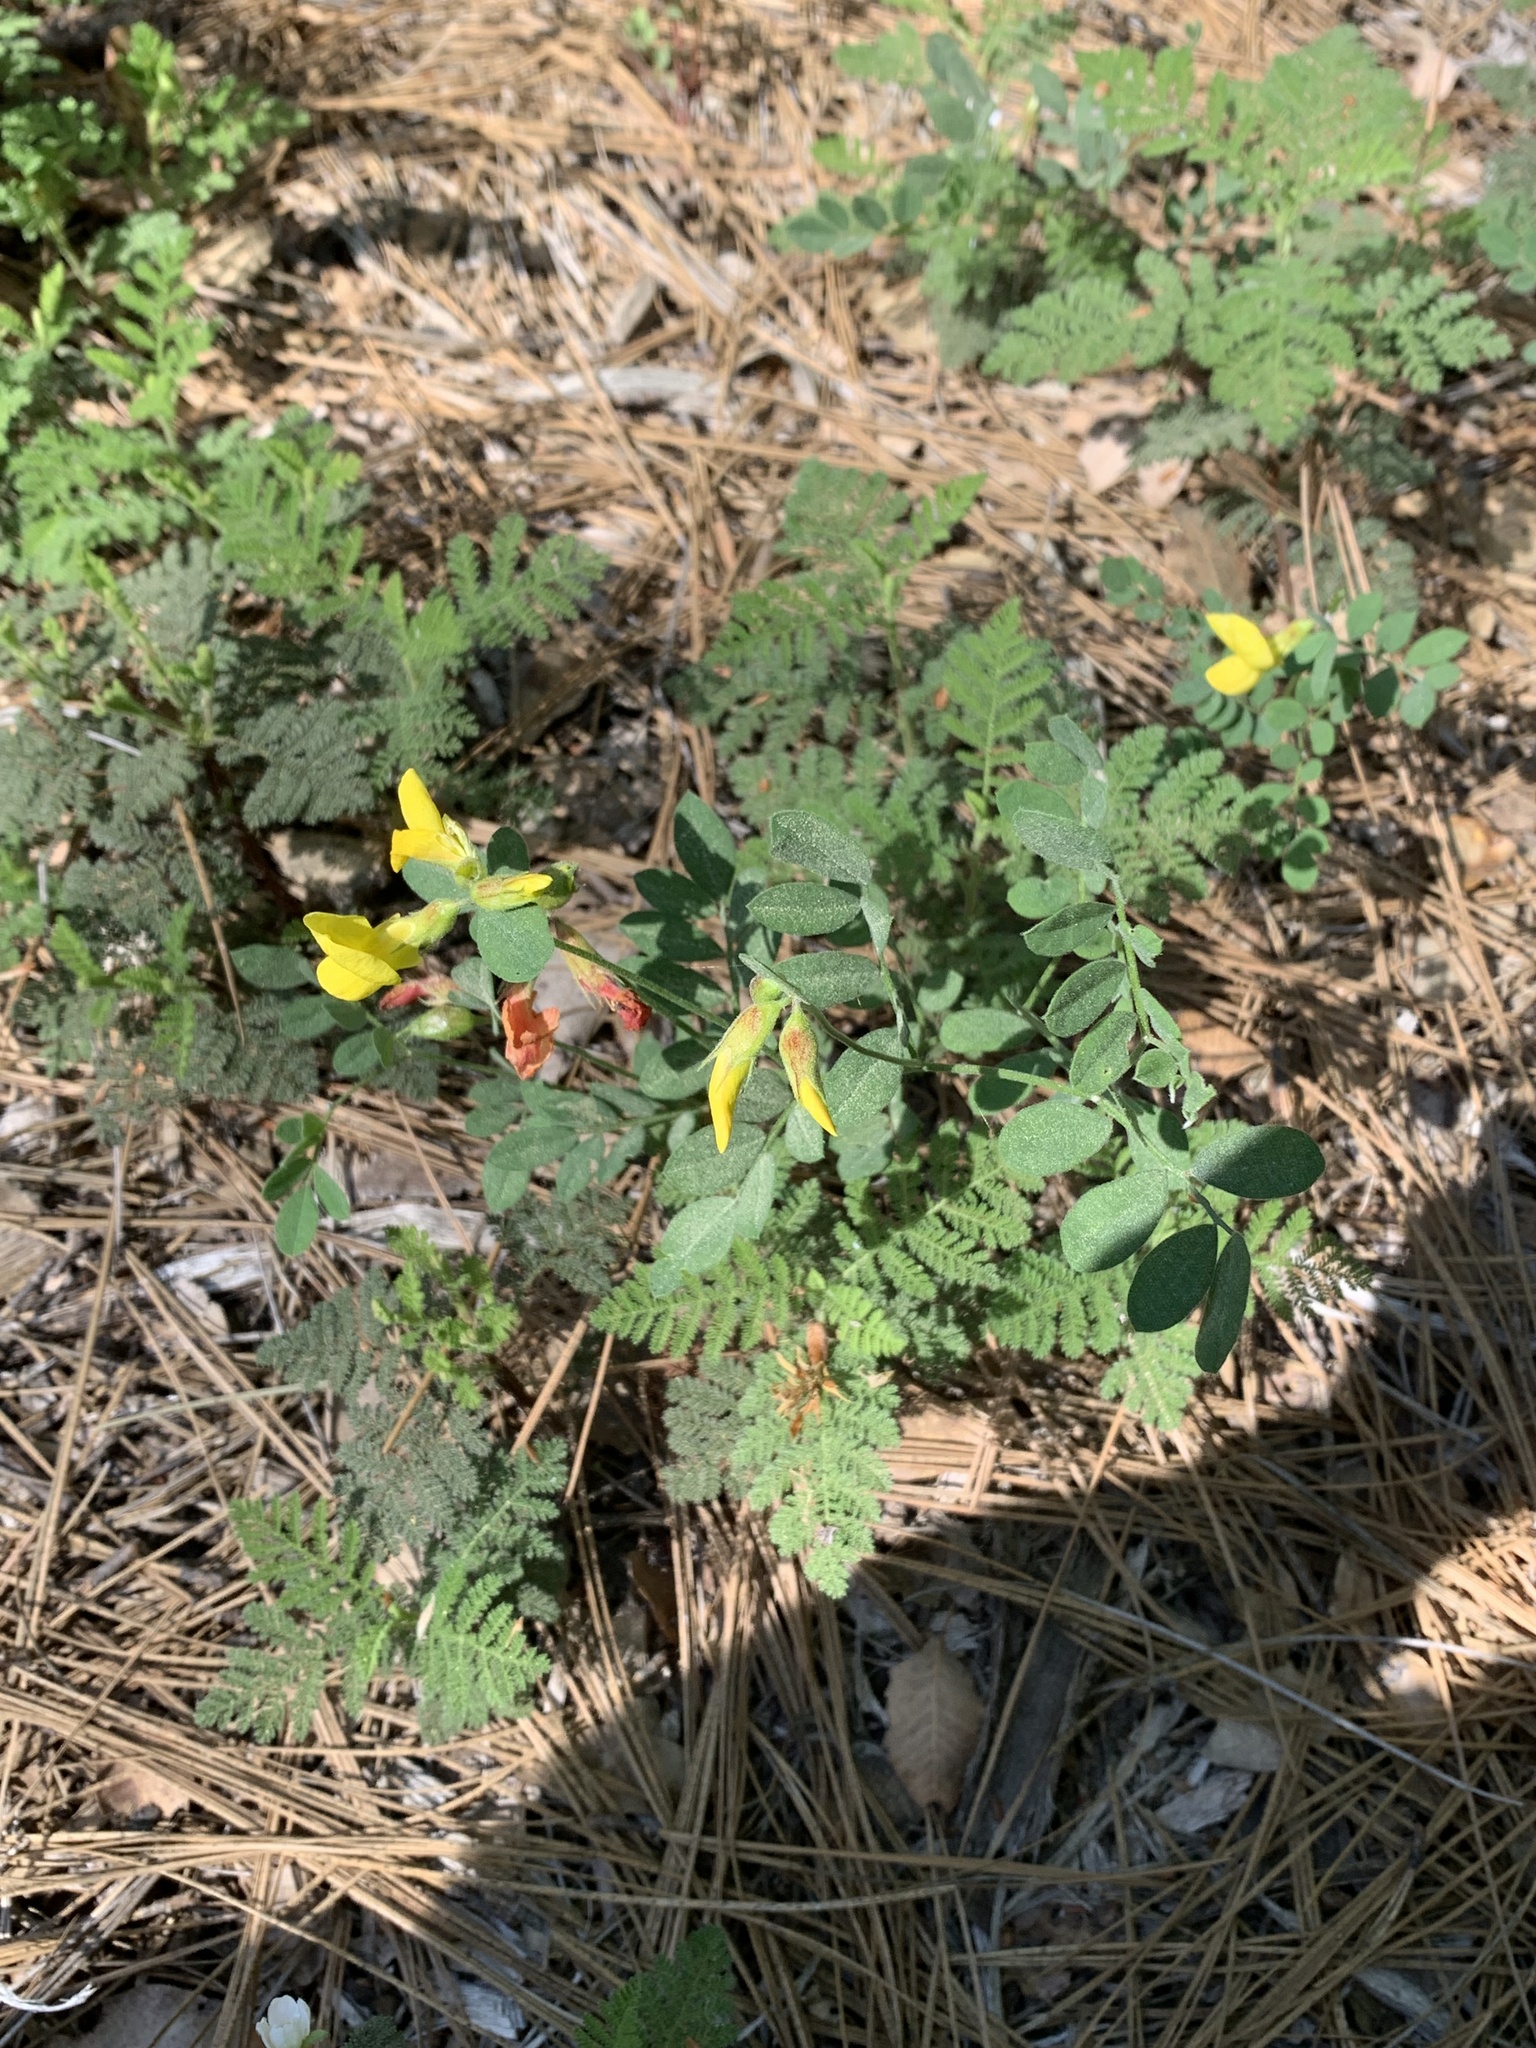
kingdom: Plantae
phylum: Tracheophyta
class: Magnoliopsida
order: Fabales
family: Fabaceae
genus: Acmispon
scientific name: Acmispon grandiflorus
